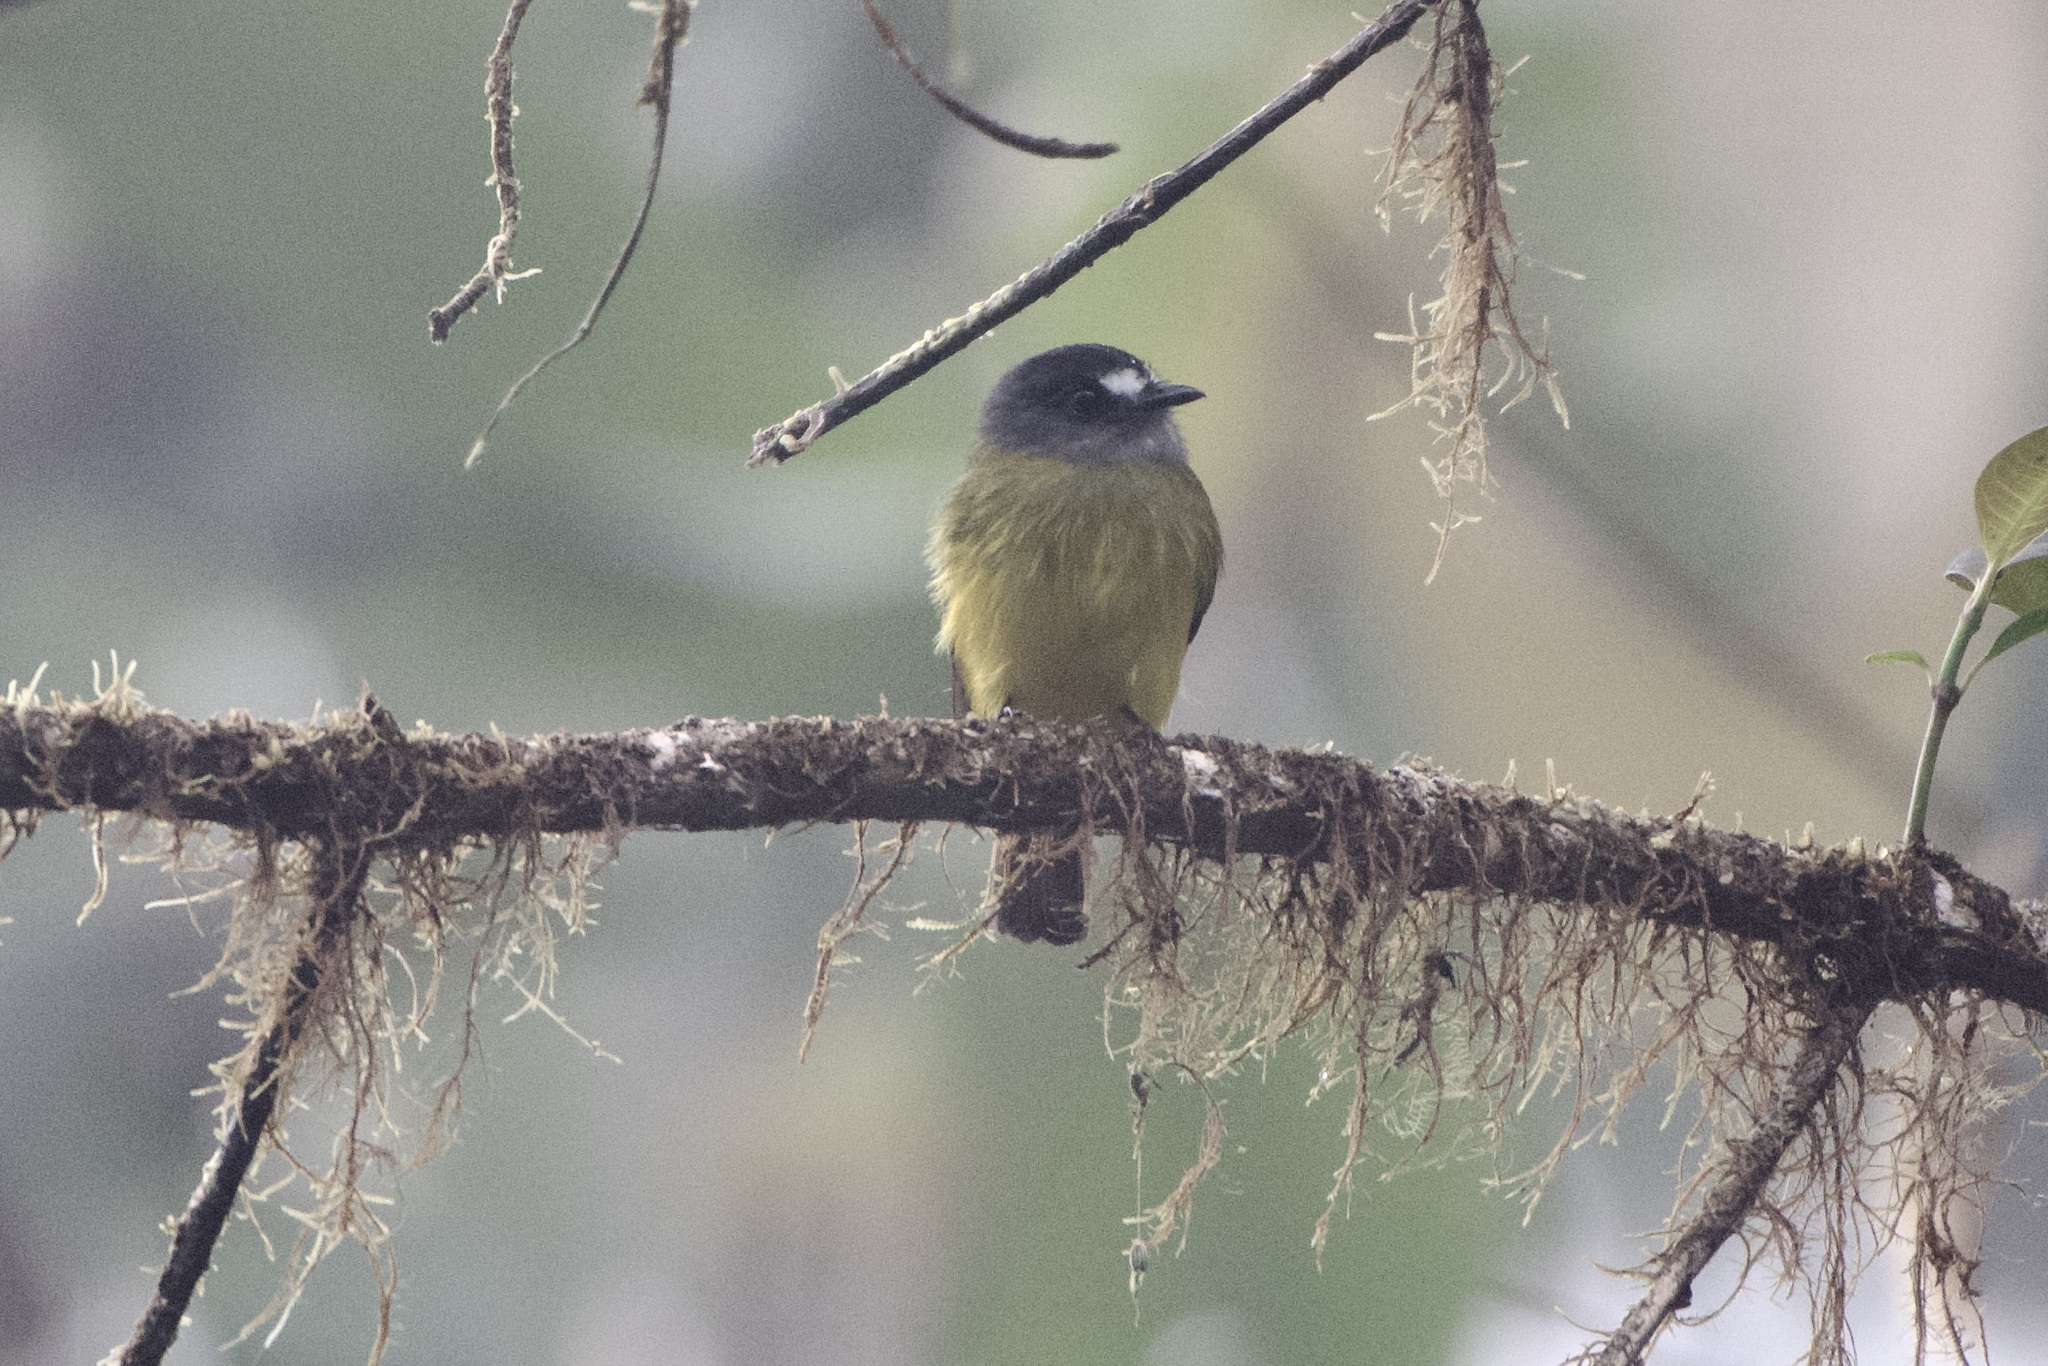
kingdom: Animalia
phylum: Chordata
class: Aves
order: Passeriformes
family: Tyrannidae
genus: Myiotriccus
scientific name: Myiotriccus ornatus
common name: Ornate flycatcher
